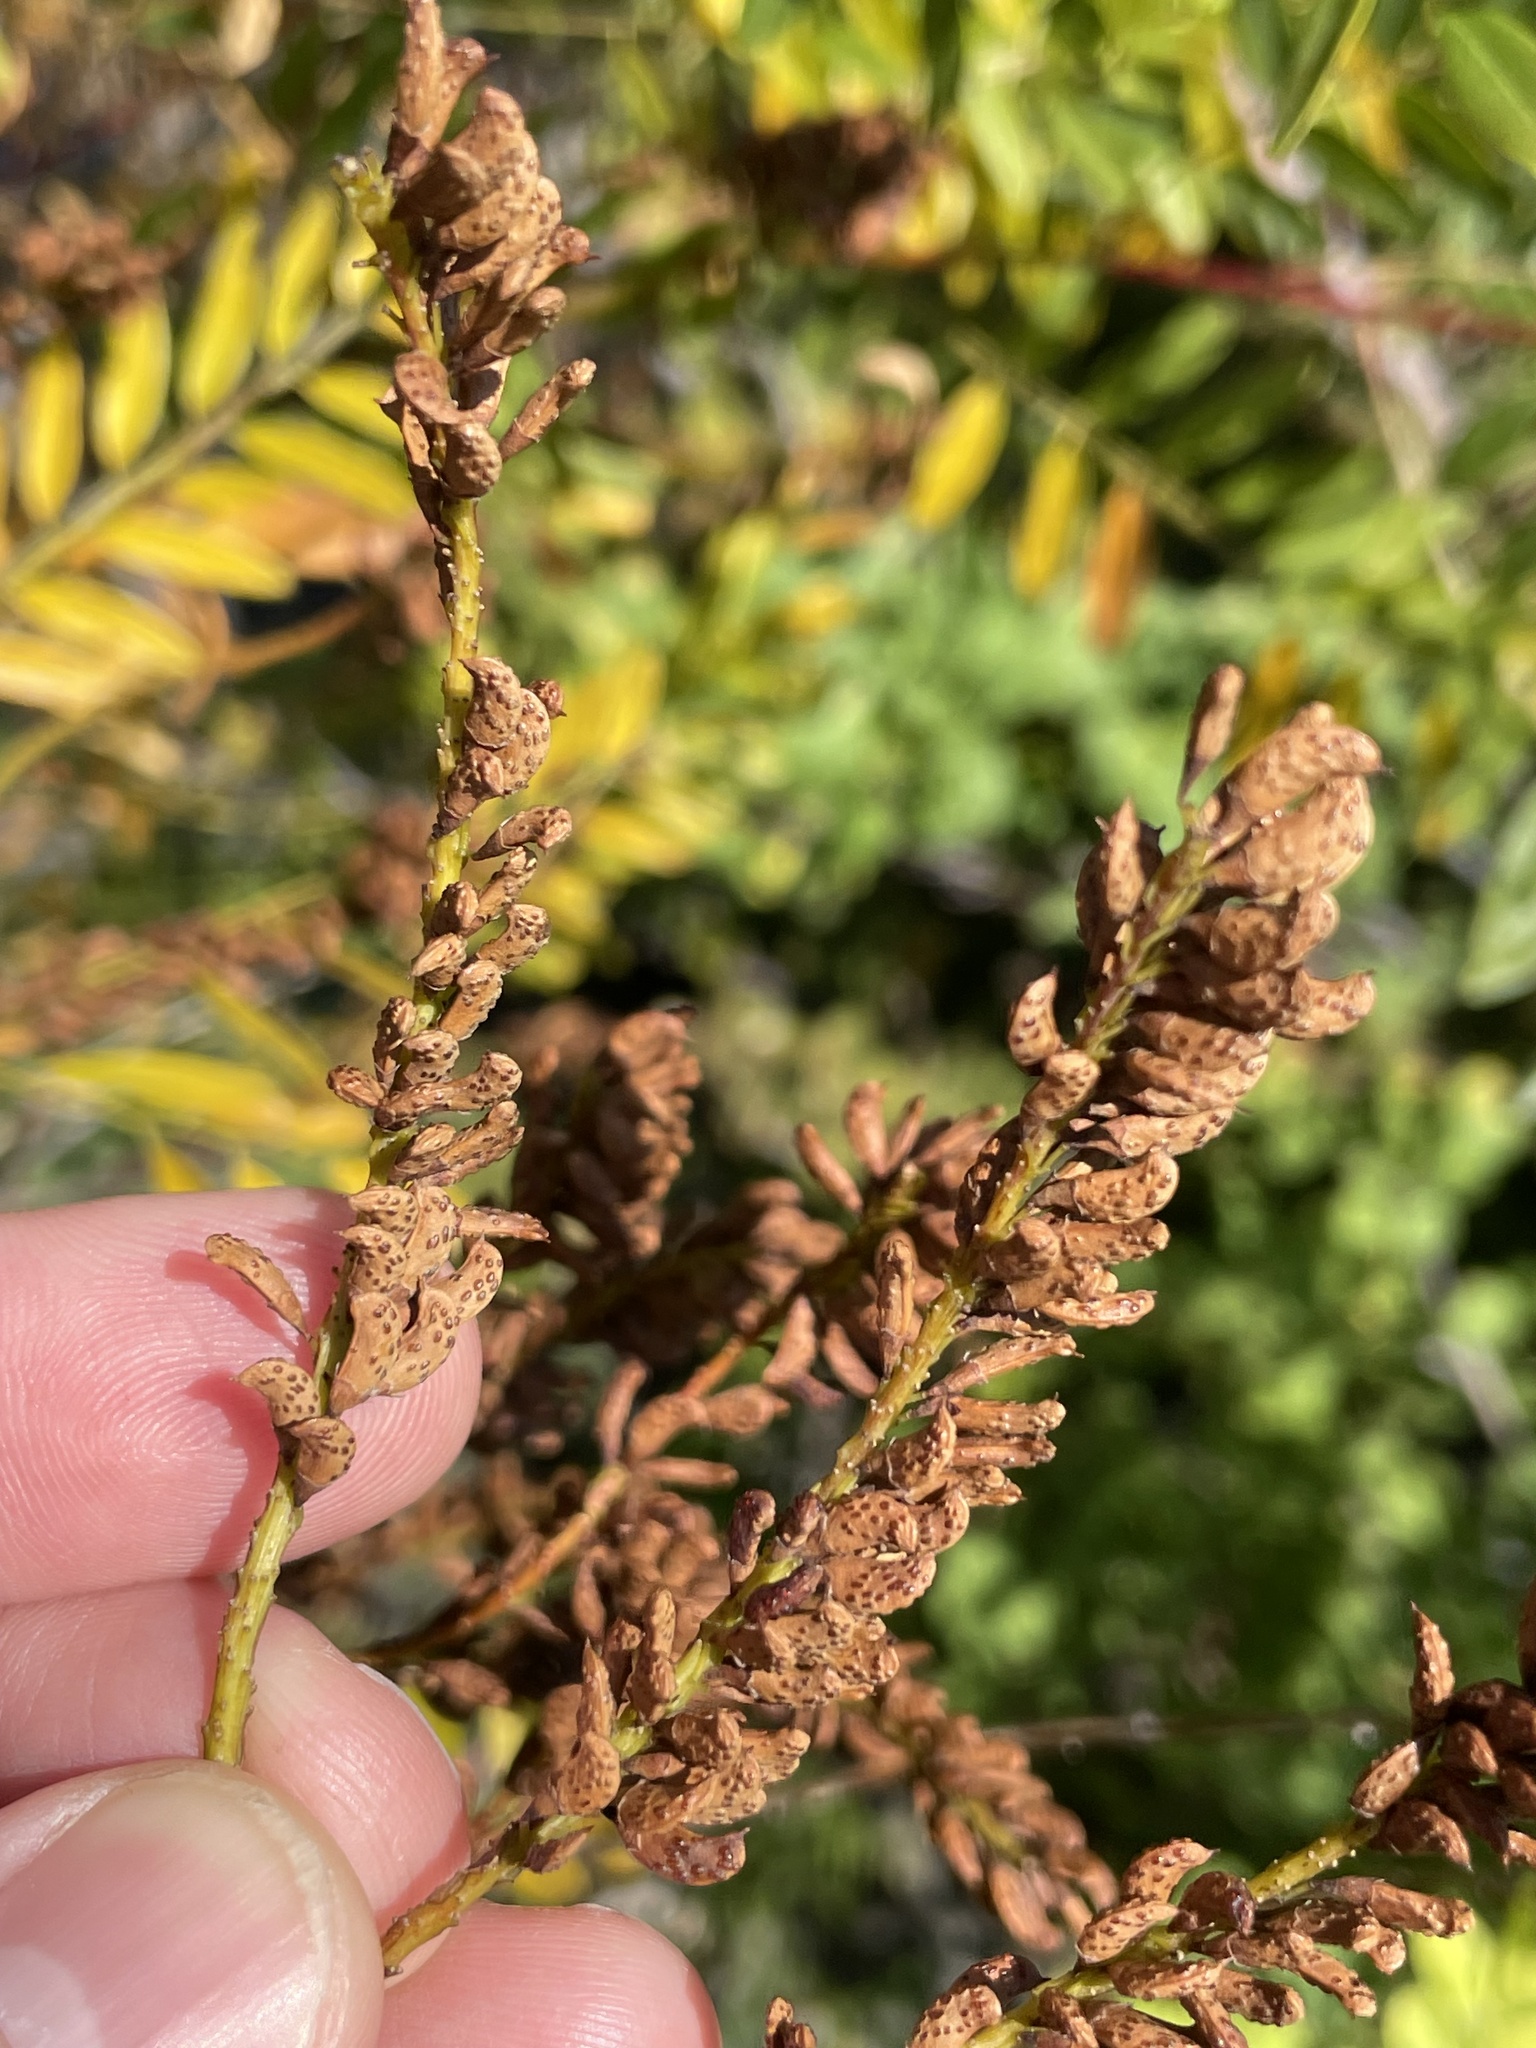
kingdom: Plantae
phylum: Tracheophyta
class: Magnoliopsida
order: Fabales
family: Fabaceae
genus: Amorpha
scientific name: Amorpha fruticosa
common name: False indigo
